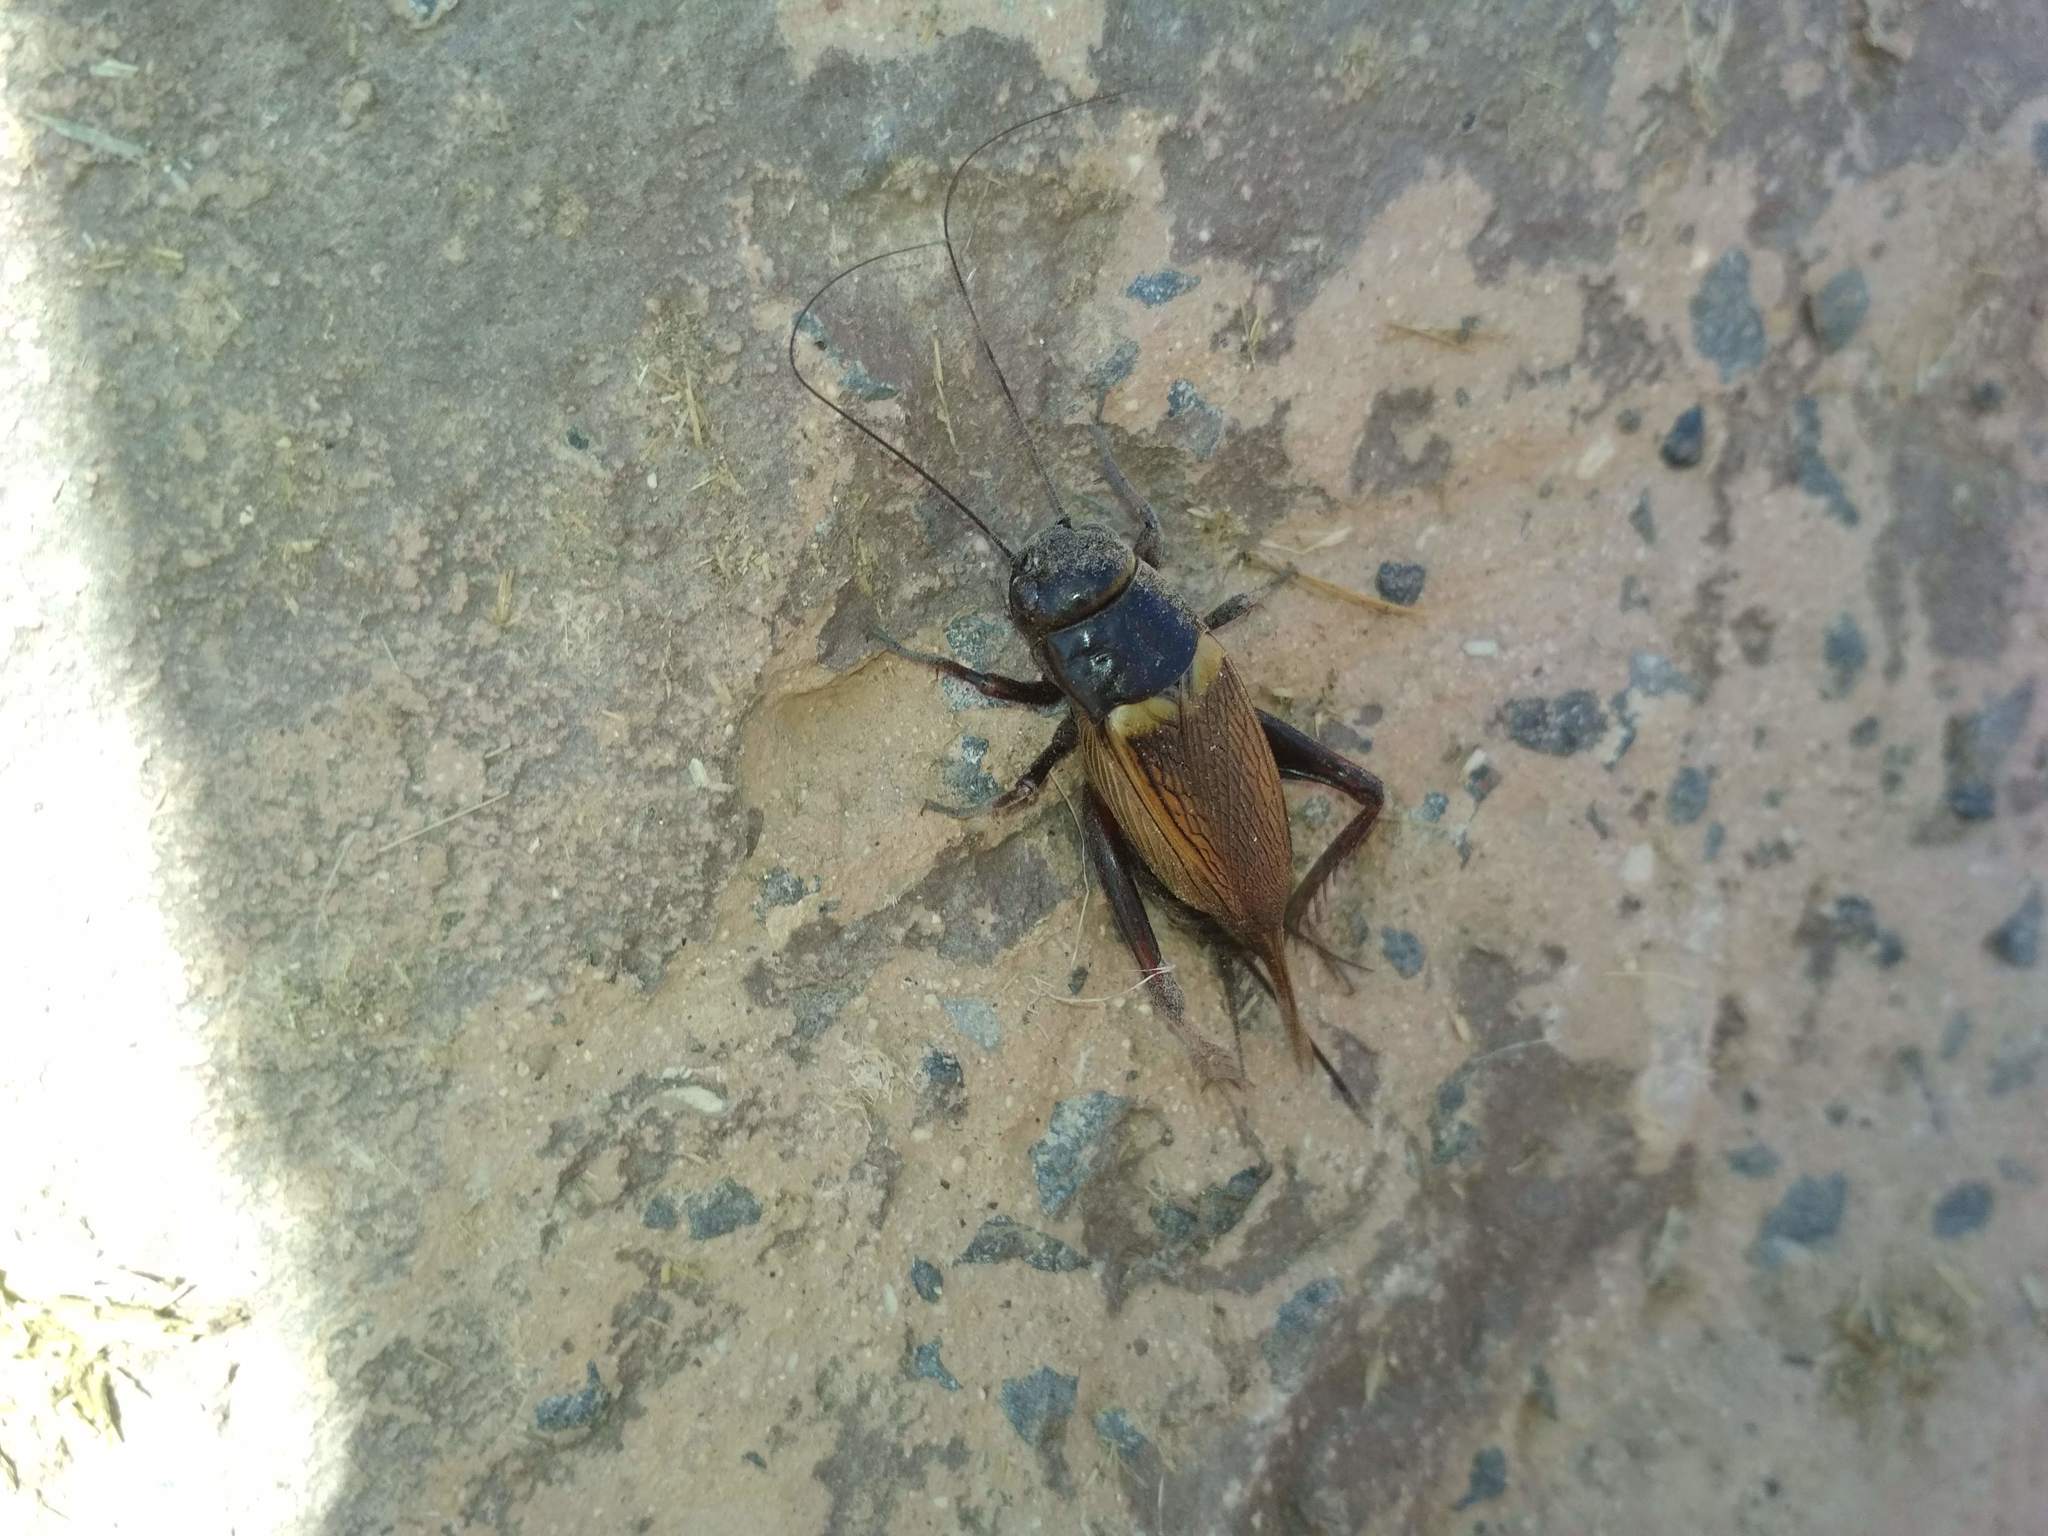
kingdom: Animalia
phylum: Arthropoda
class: Insecta
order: Orthoptera
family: Gryllidae
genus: Gryllus
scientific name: Gryllus bimaculatus
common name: Two-spotted cricket
